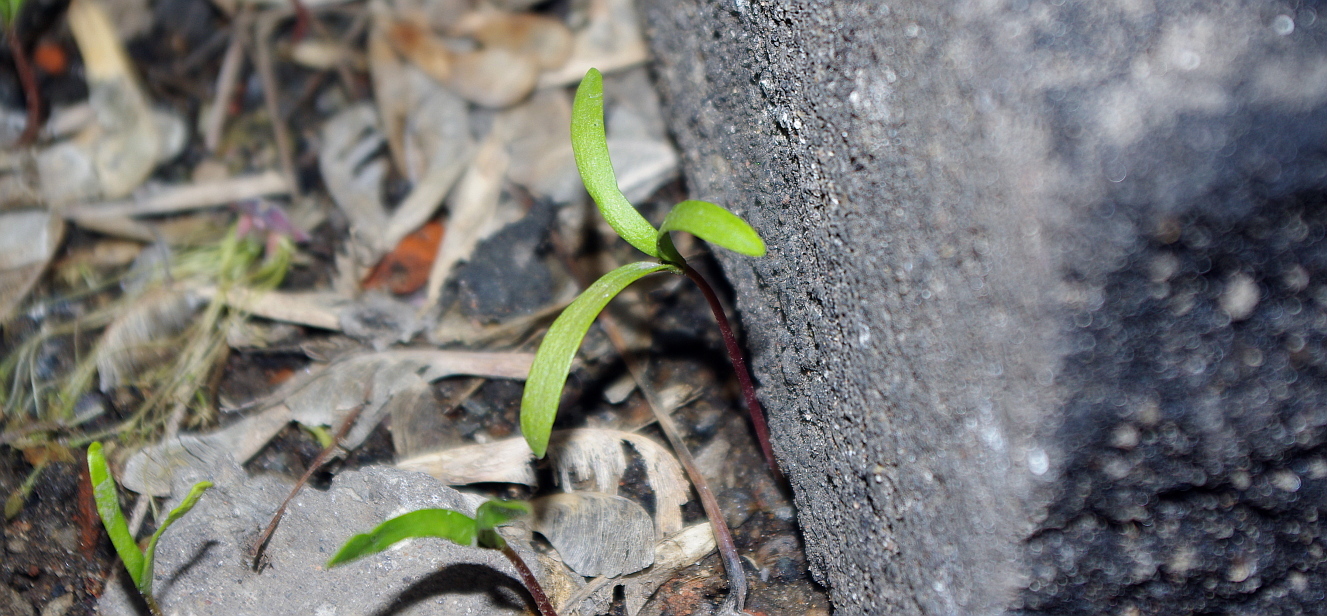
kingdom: Plantae
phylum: Tracheophyta
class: Magnoliopsida
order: Sapindales
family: Sapindaceae
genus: Acer
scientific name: Acer negundo
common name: Ashleaf maple
